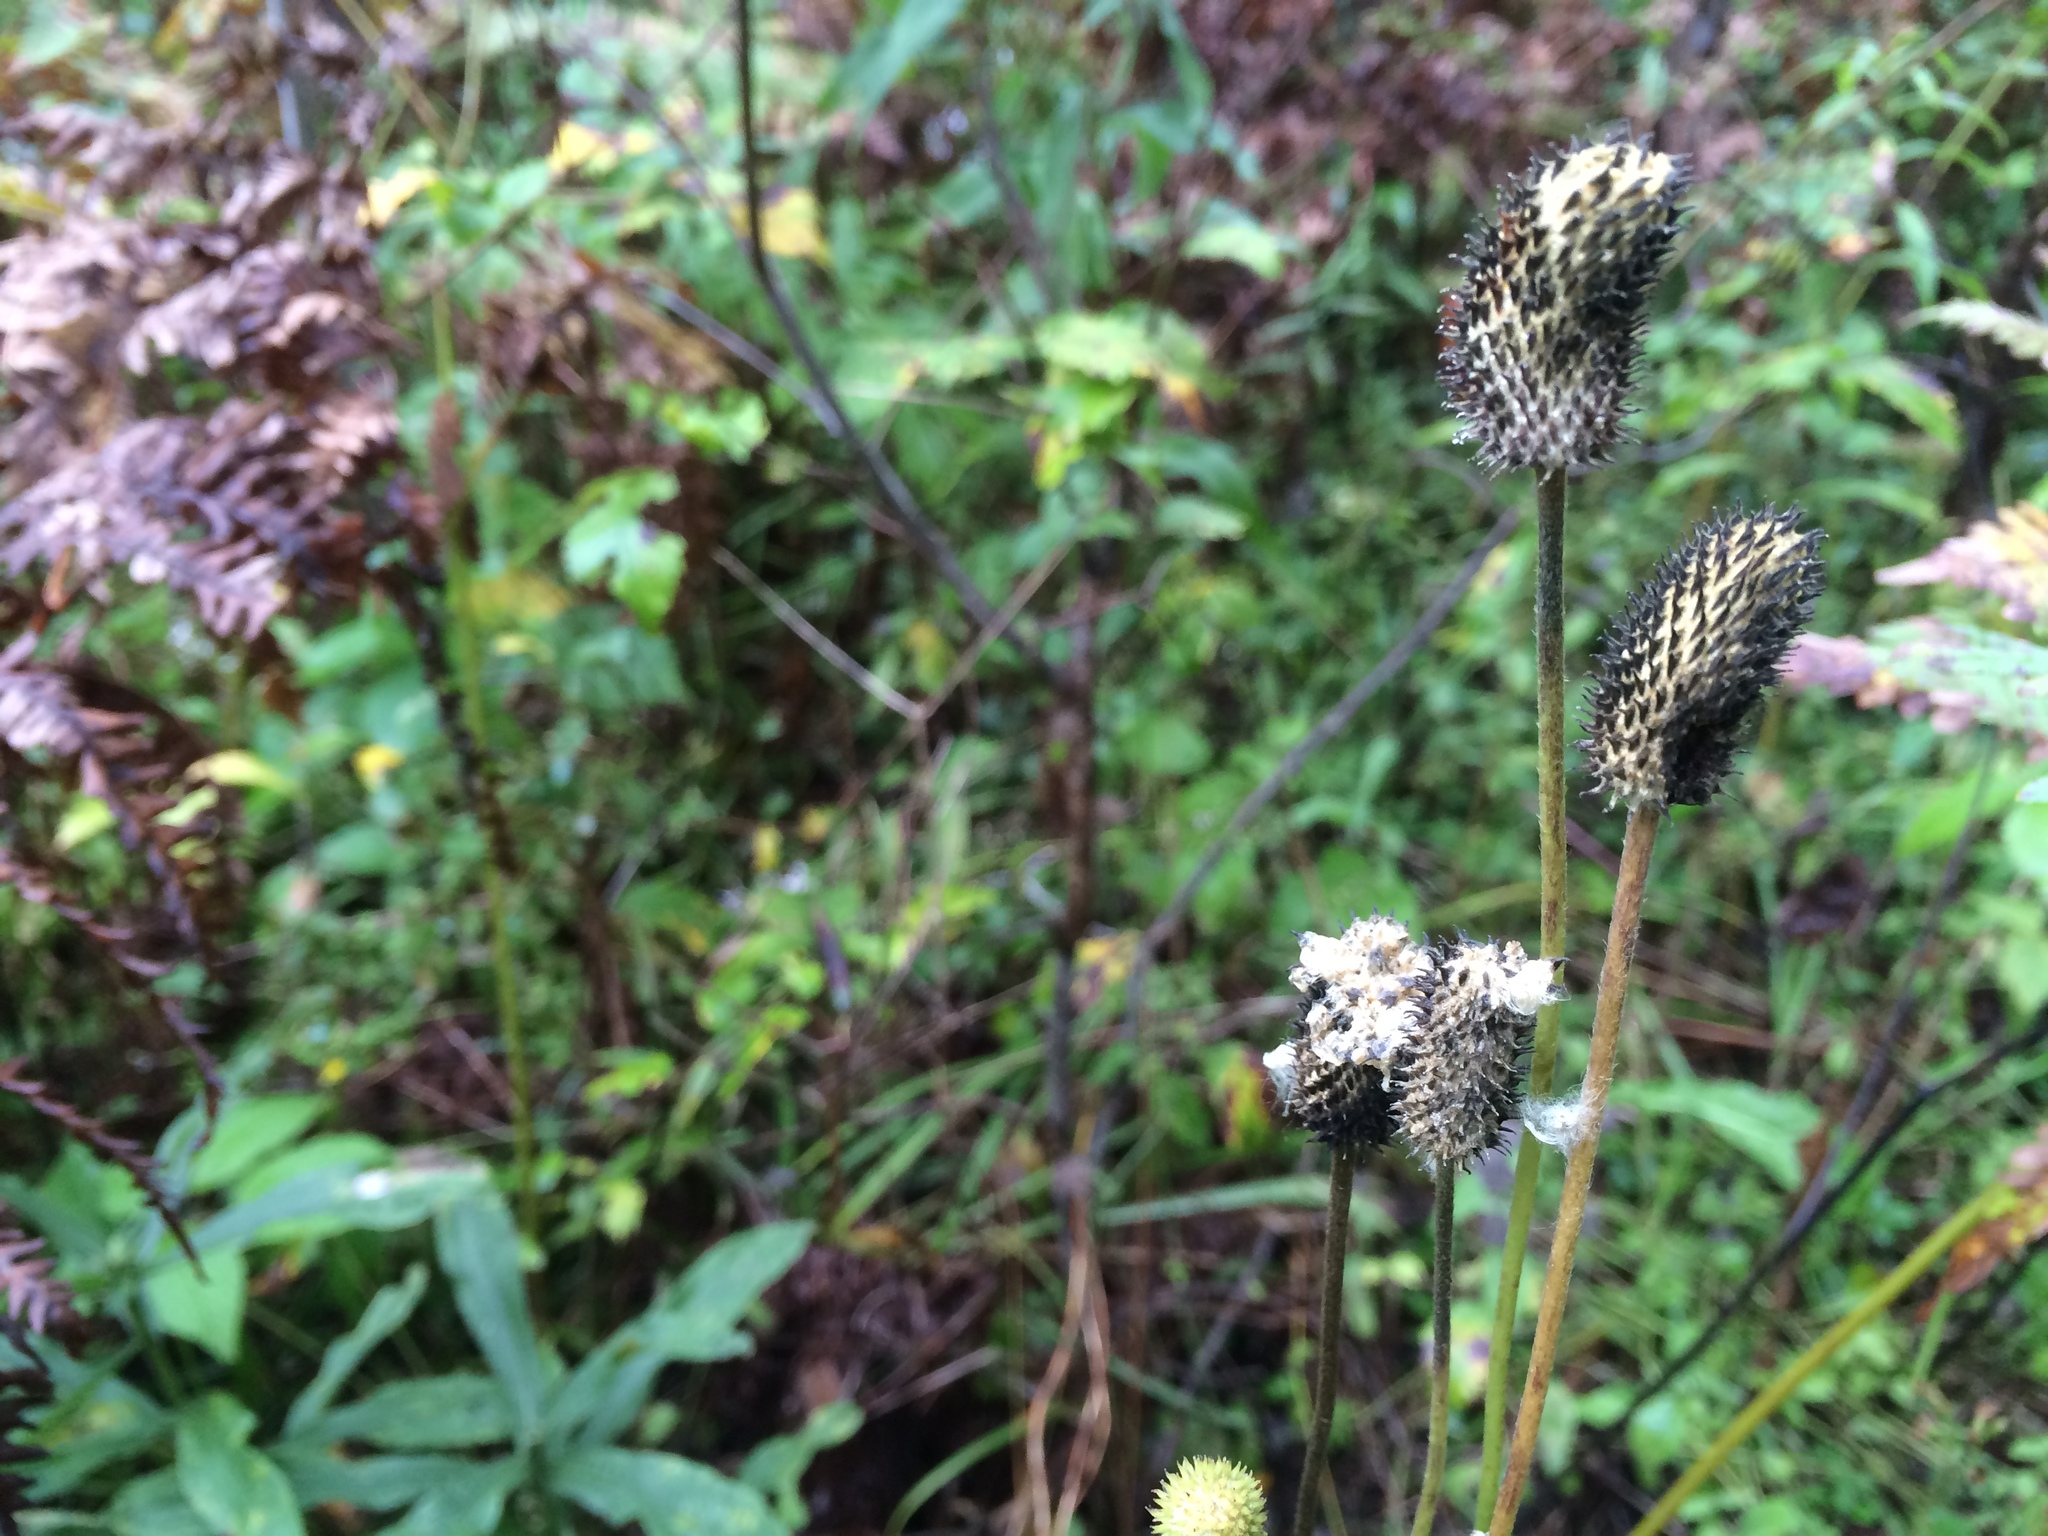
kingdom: Plantae
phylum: Tracheophyta
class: Magnoliopsida
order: Ranunculales
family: Ranunculaceae
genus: Anemone
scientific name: Anemone virginiana
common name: Tall anemone
